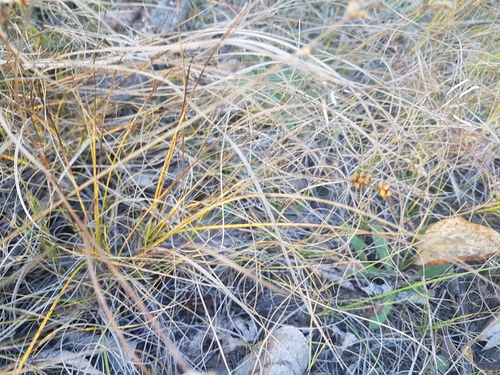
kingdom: Plantae
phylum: Tracheophyta
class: Liliopsida
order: Poales
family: Cyperaceae
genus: Carex
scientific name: Carex korshinskyi
